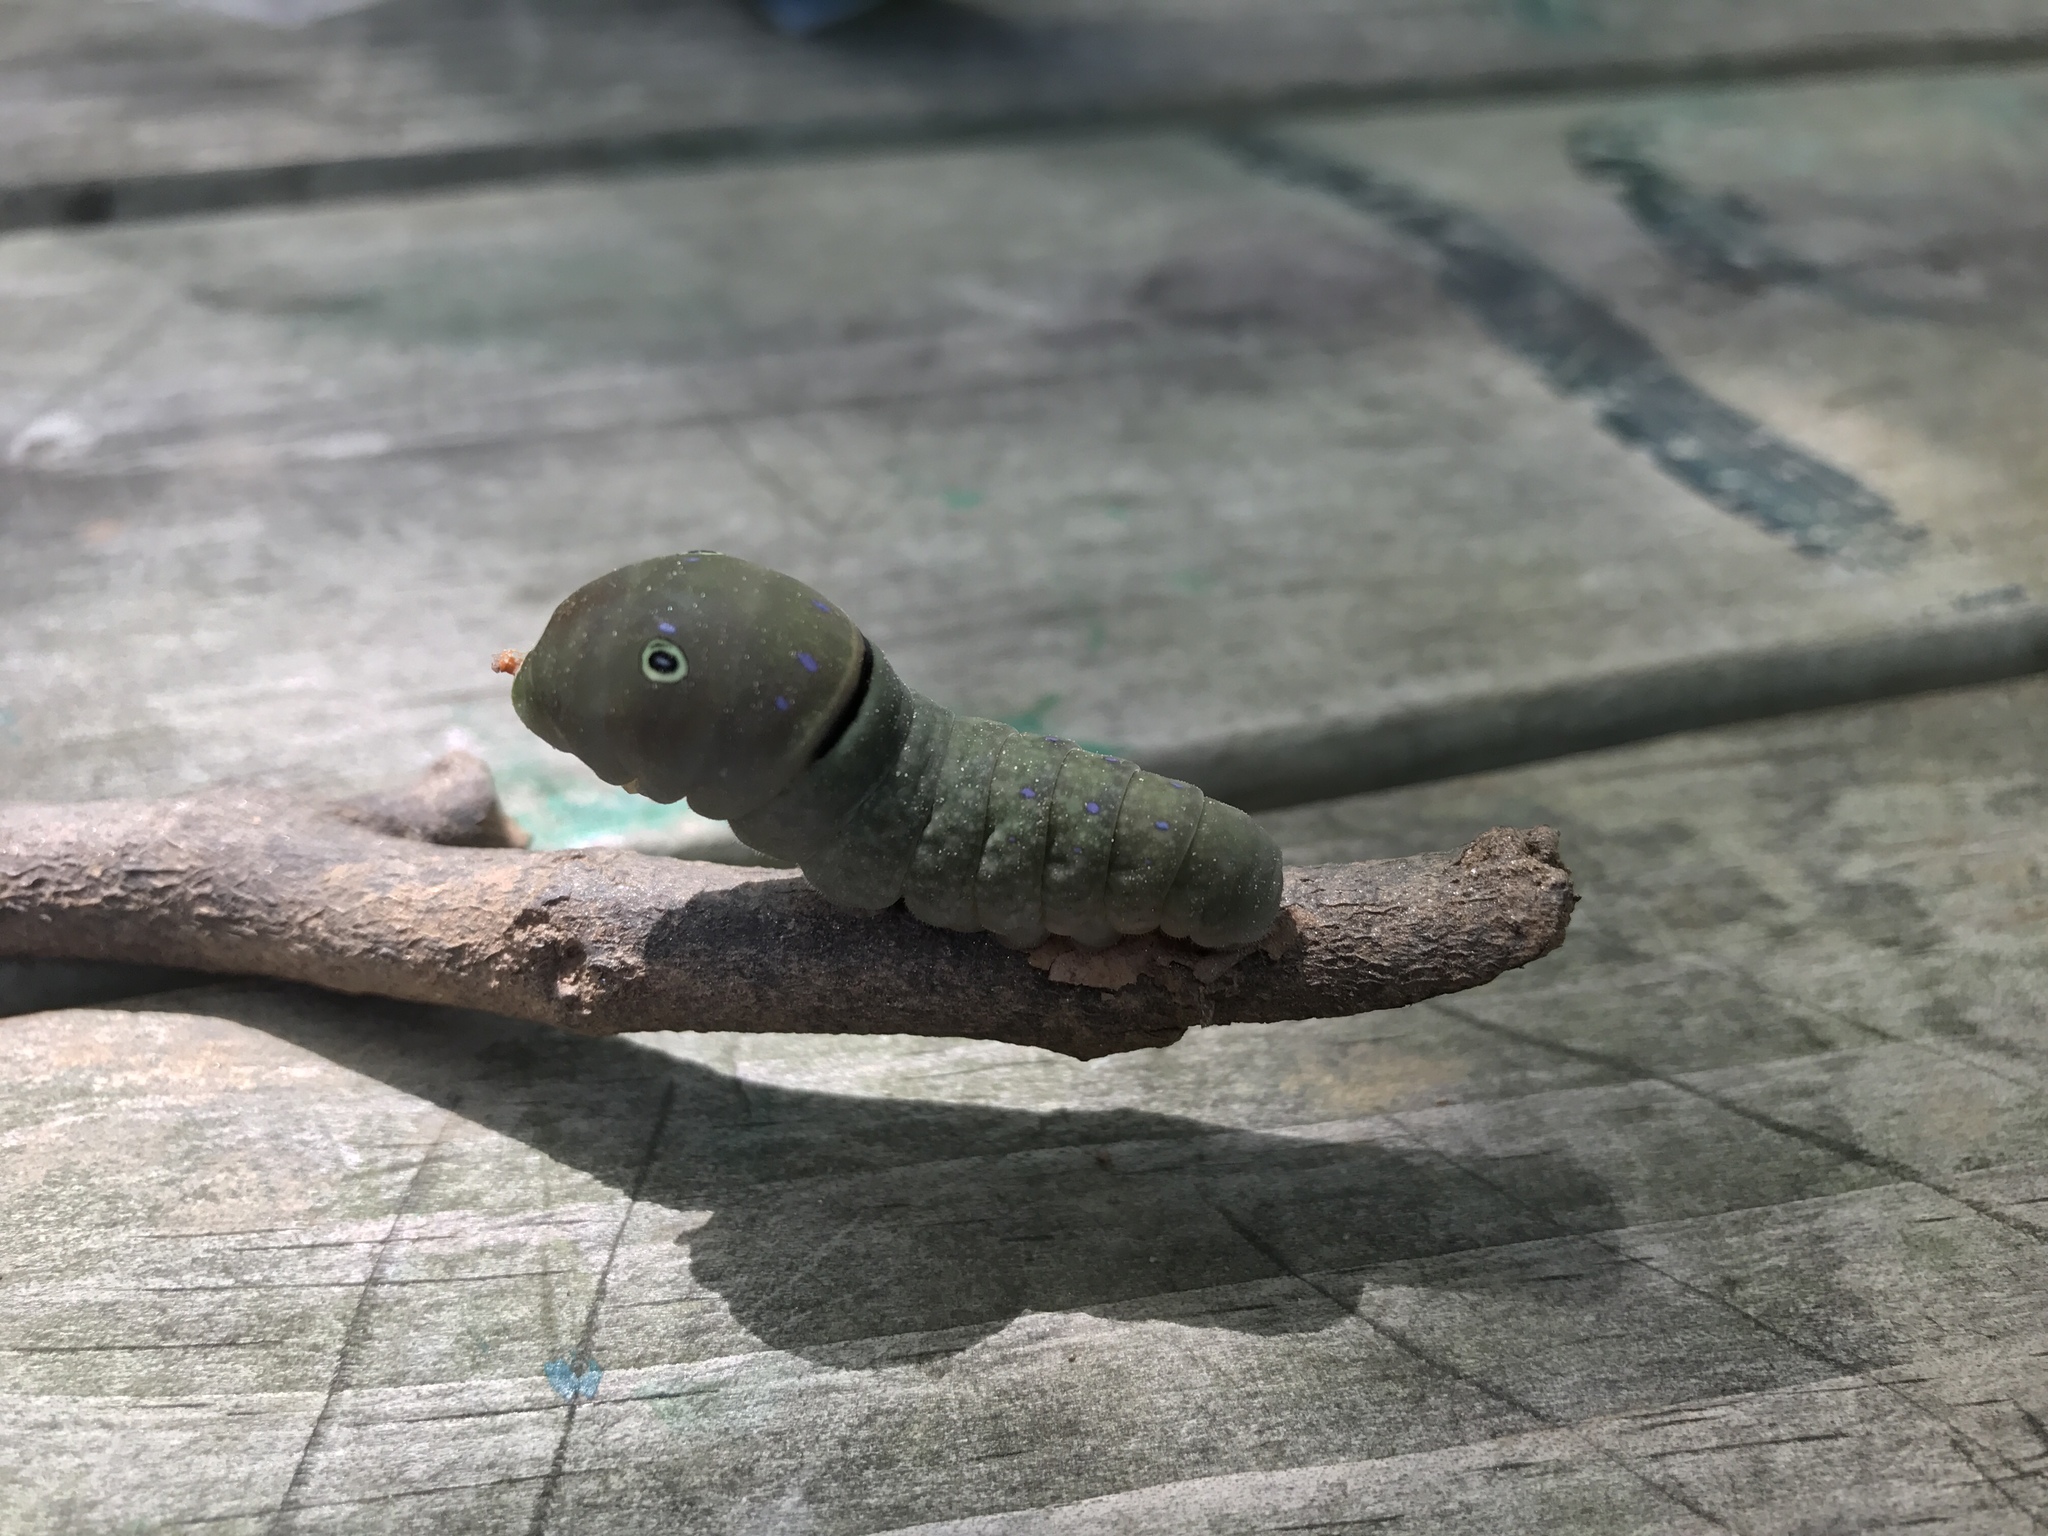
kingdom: Animalia
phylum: Arthropoda
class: Insecta
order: Lepidoptera
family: Papilionidae
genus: Papilio
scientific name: Papilio glaucus
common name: Tiger swallowtail
